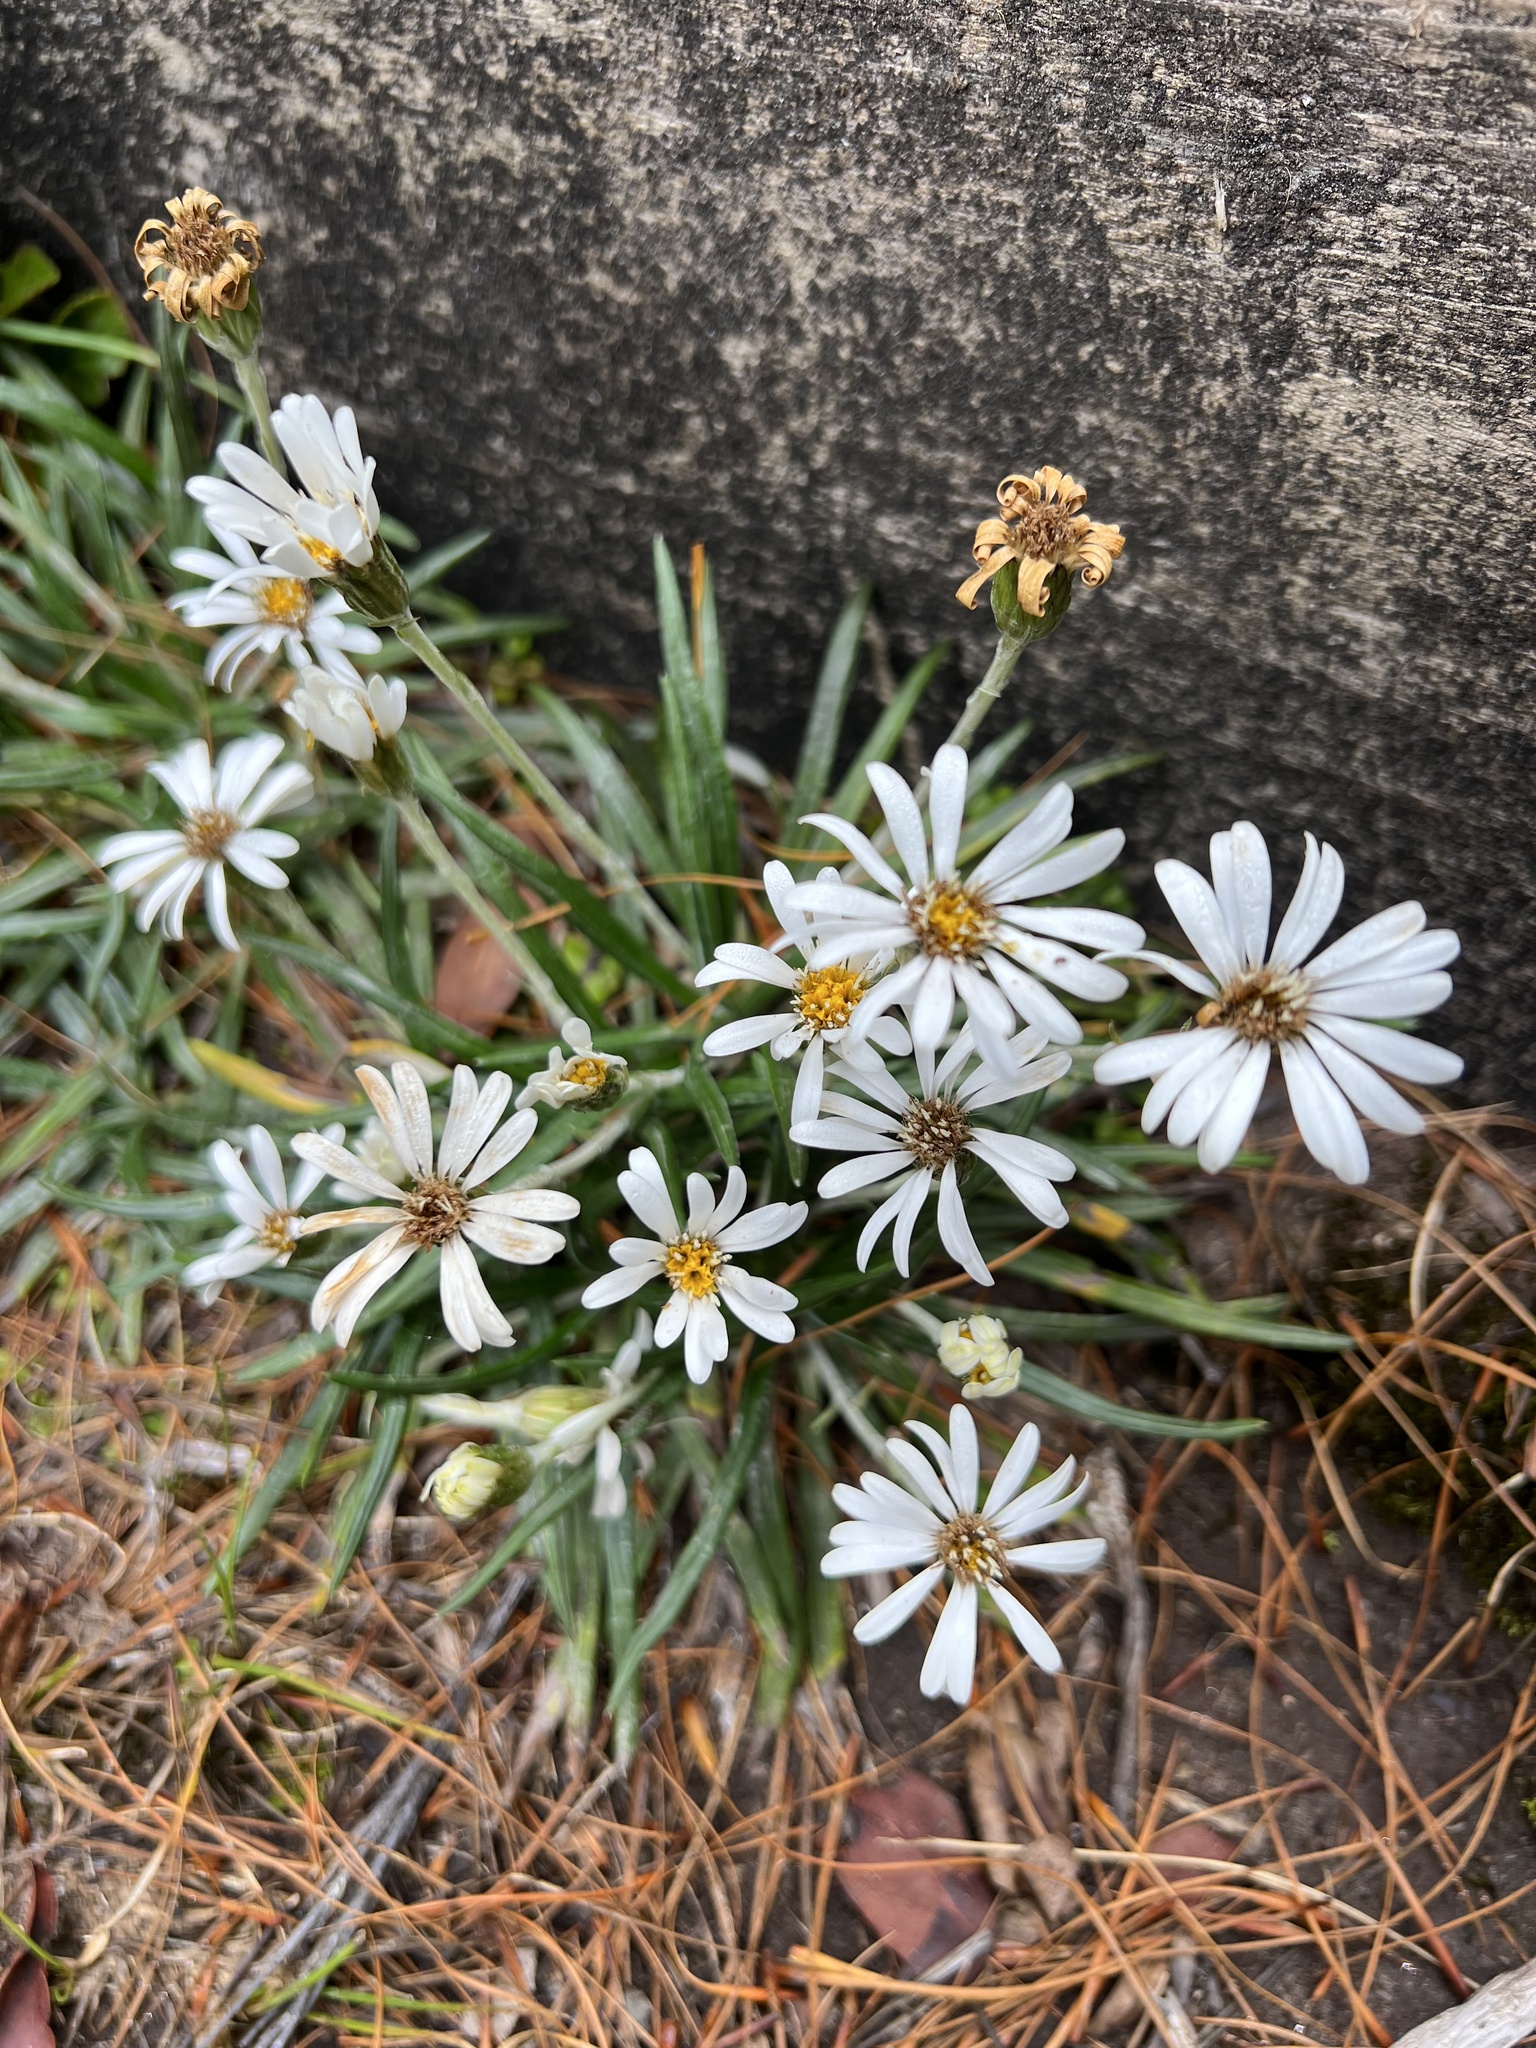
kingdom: Plantae
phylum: Tracheophyta
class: Magnoliopsida
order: Asterales
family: Asteraceae
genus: Celmisia
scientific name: Celmisia major
